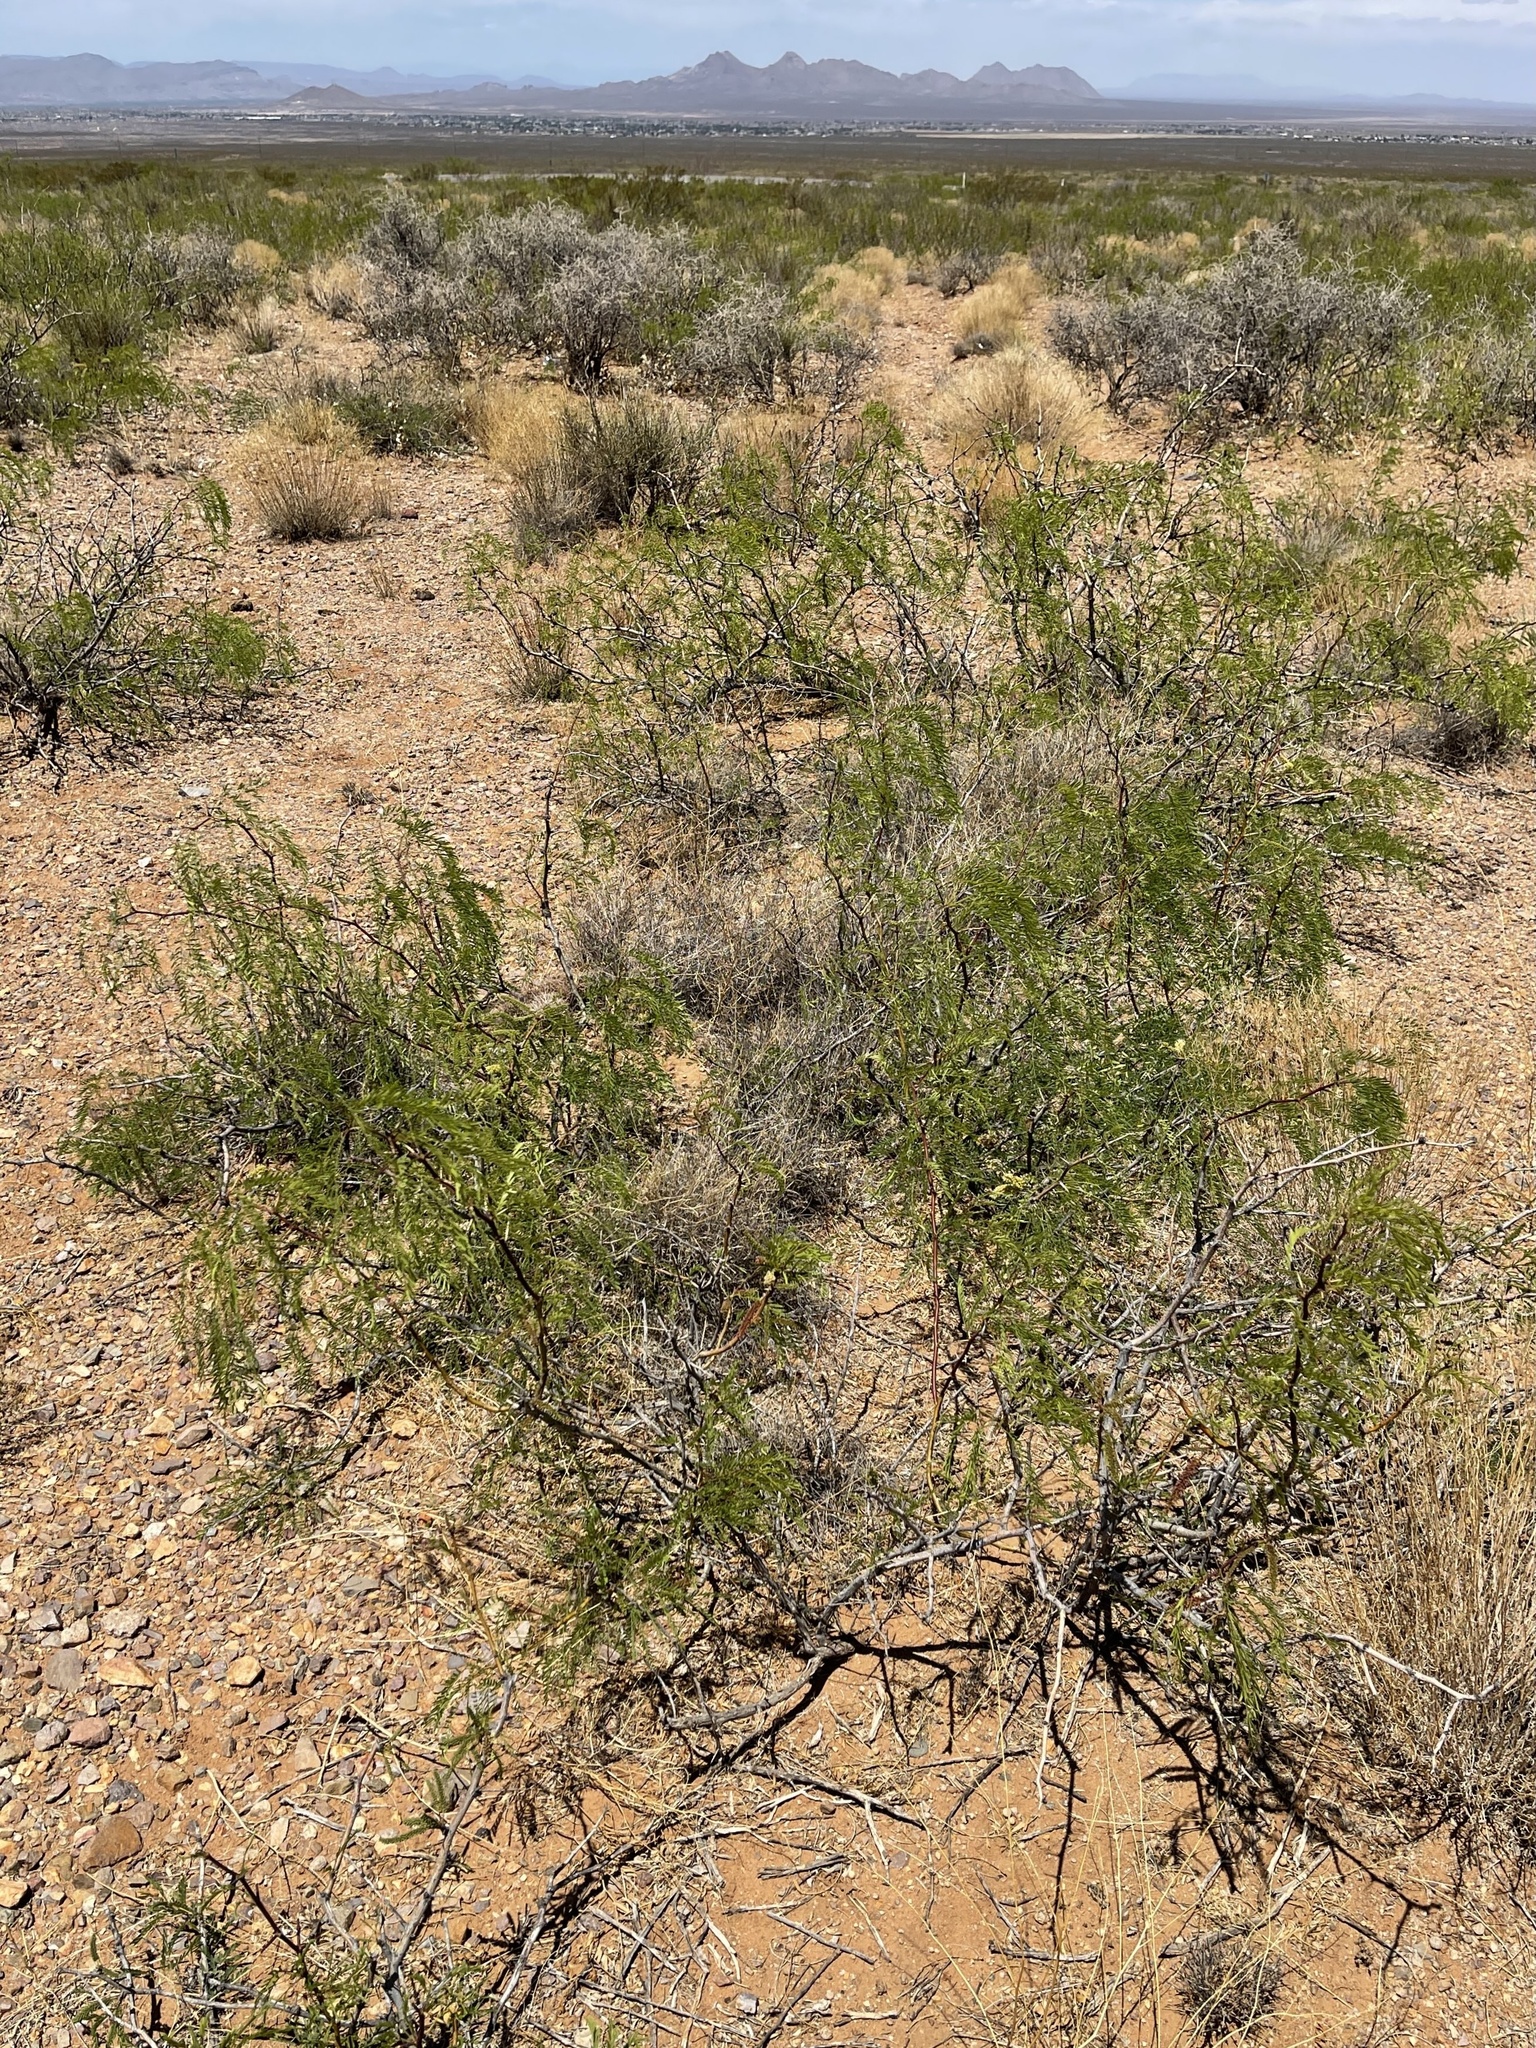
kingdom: Plantae
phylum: Tracheophyta
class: Magnoliopsida
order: Fabales
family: Fabaceae
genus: Prosopis
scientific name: Prosopis glandulosa
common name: Honey mesquite
